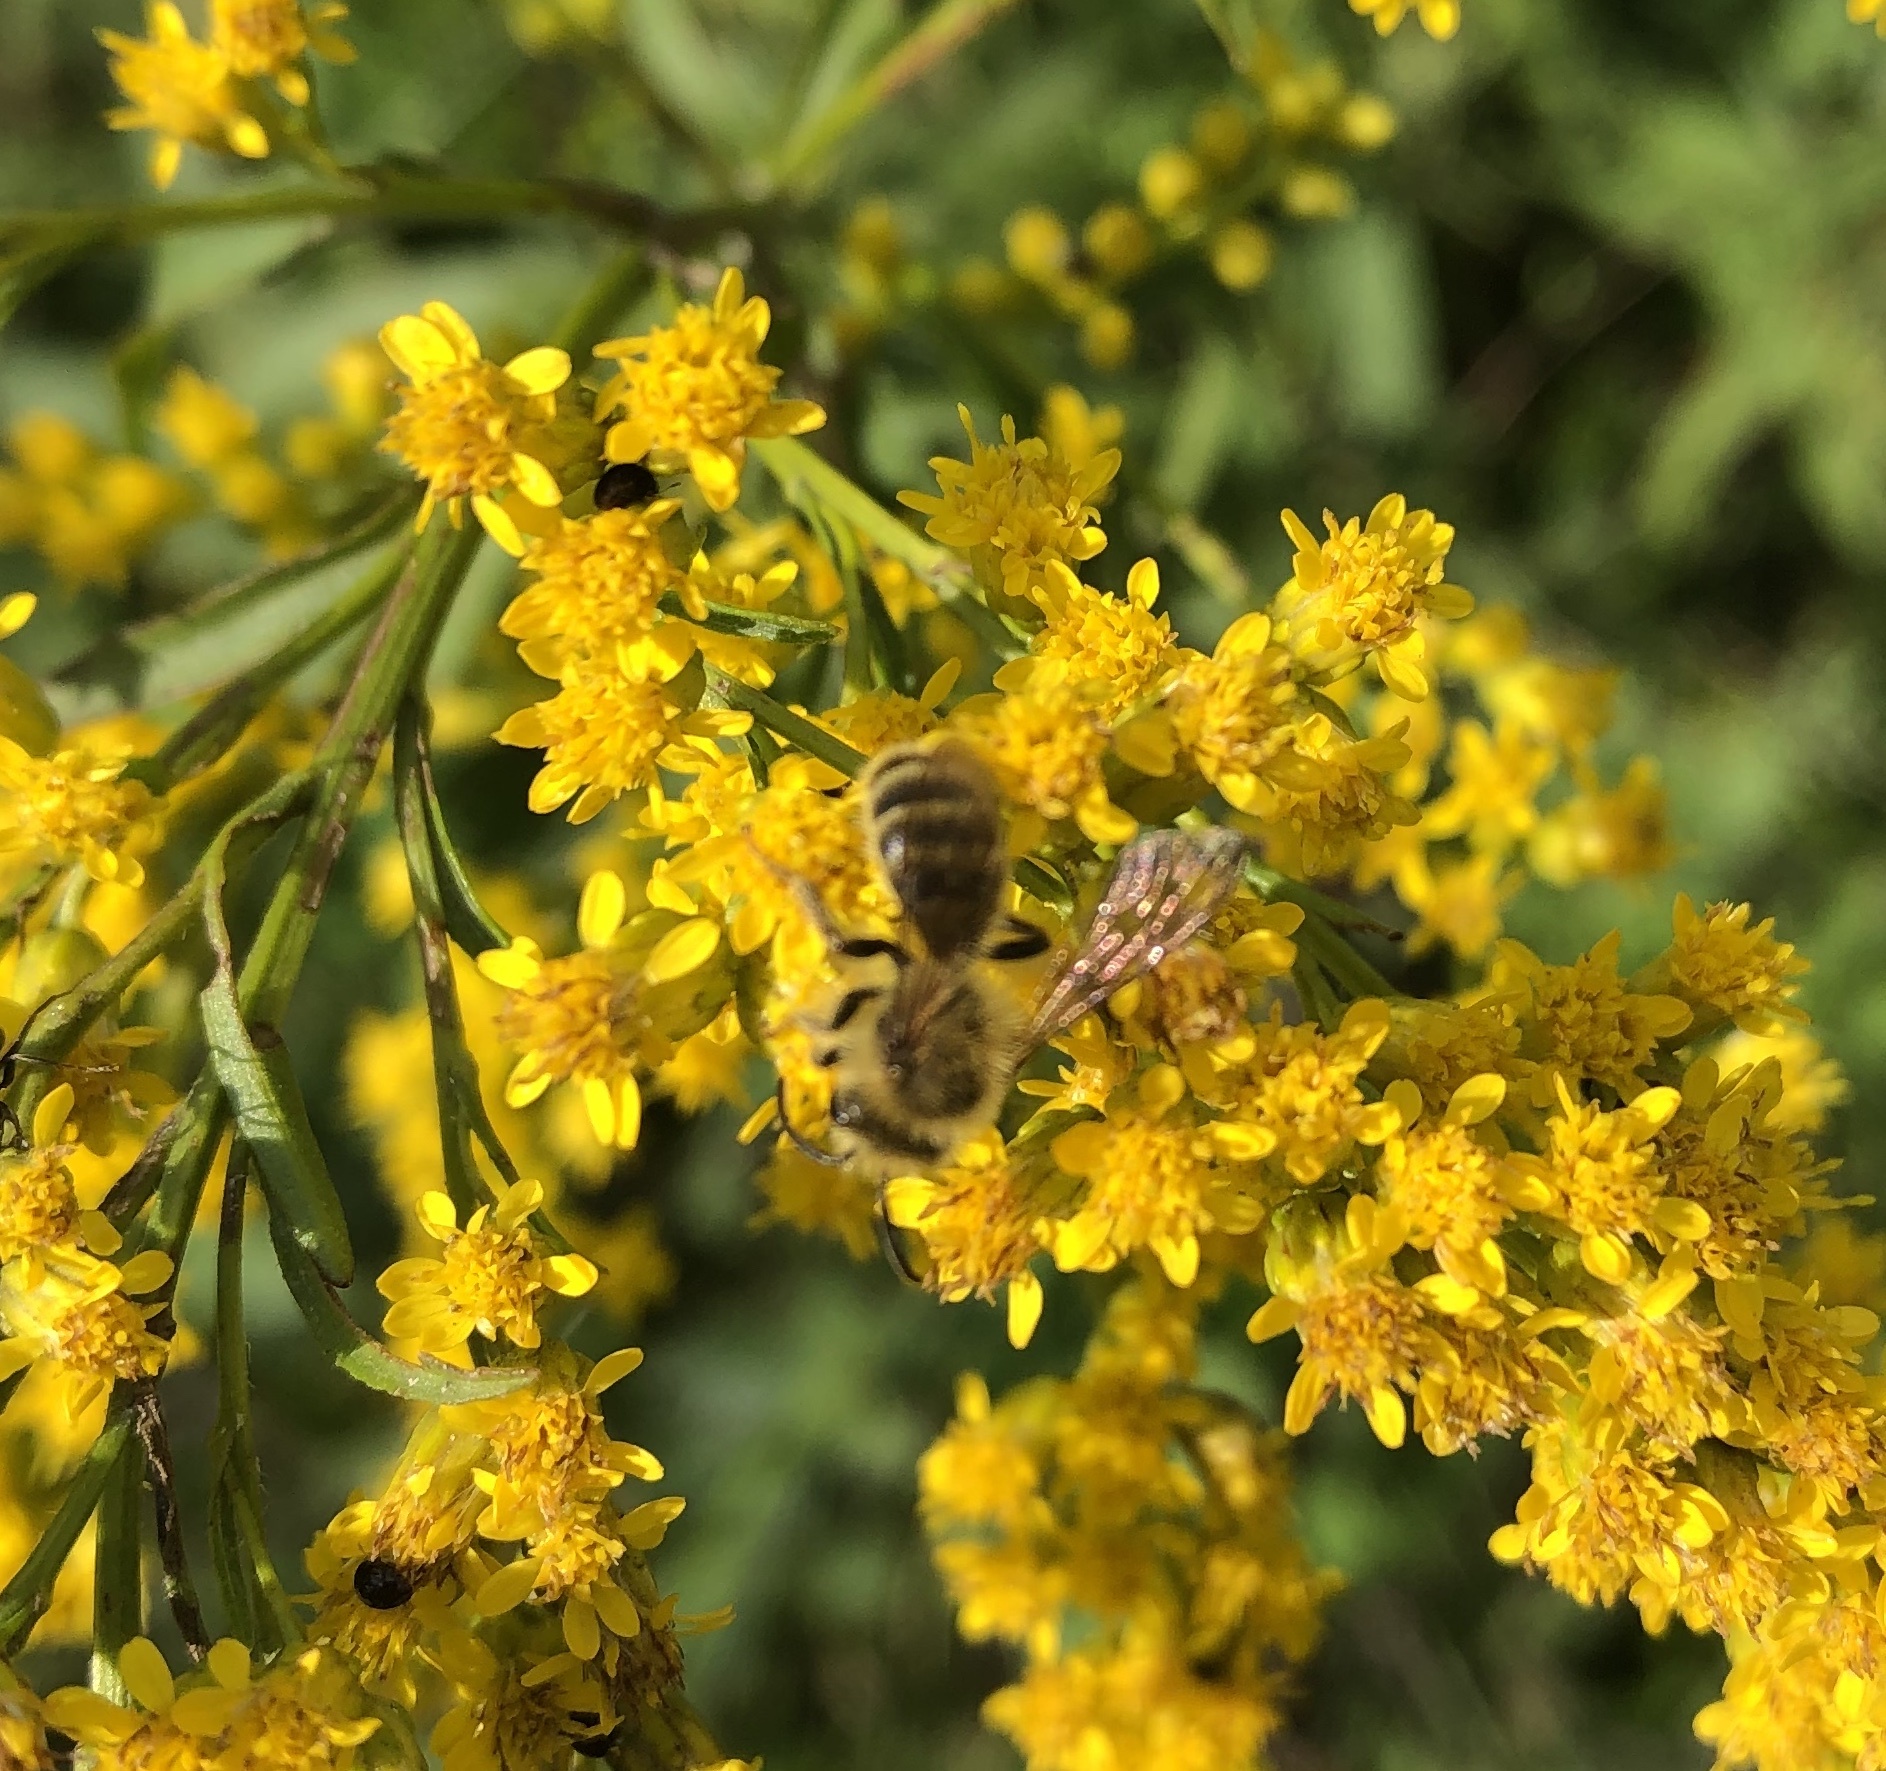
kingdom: Animalia
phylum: Arthropoda
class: Insecta
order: Hymenoptera
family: Andrenidae
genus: Andrena
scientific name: Andrena hirticincta
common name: Hairy-banded mining bee
